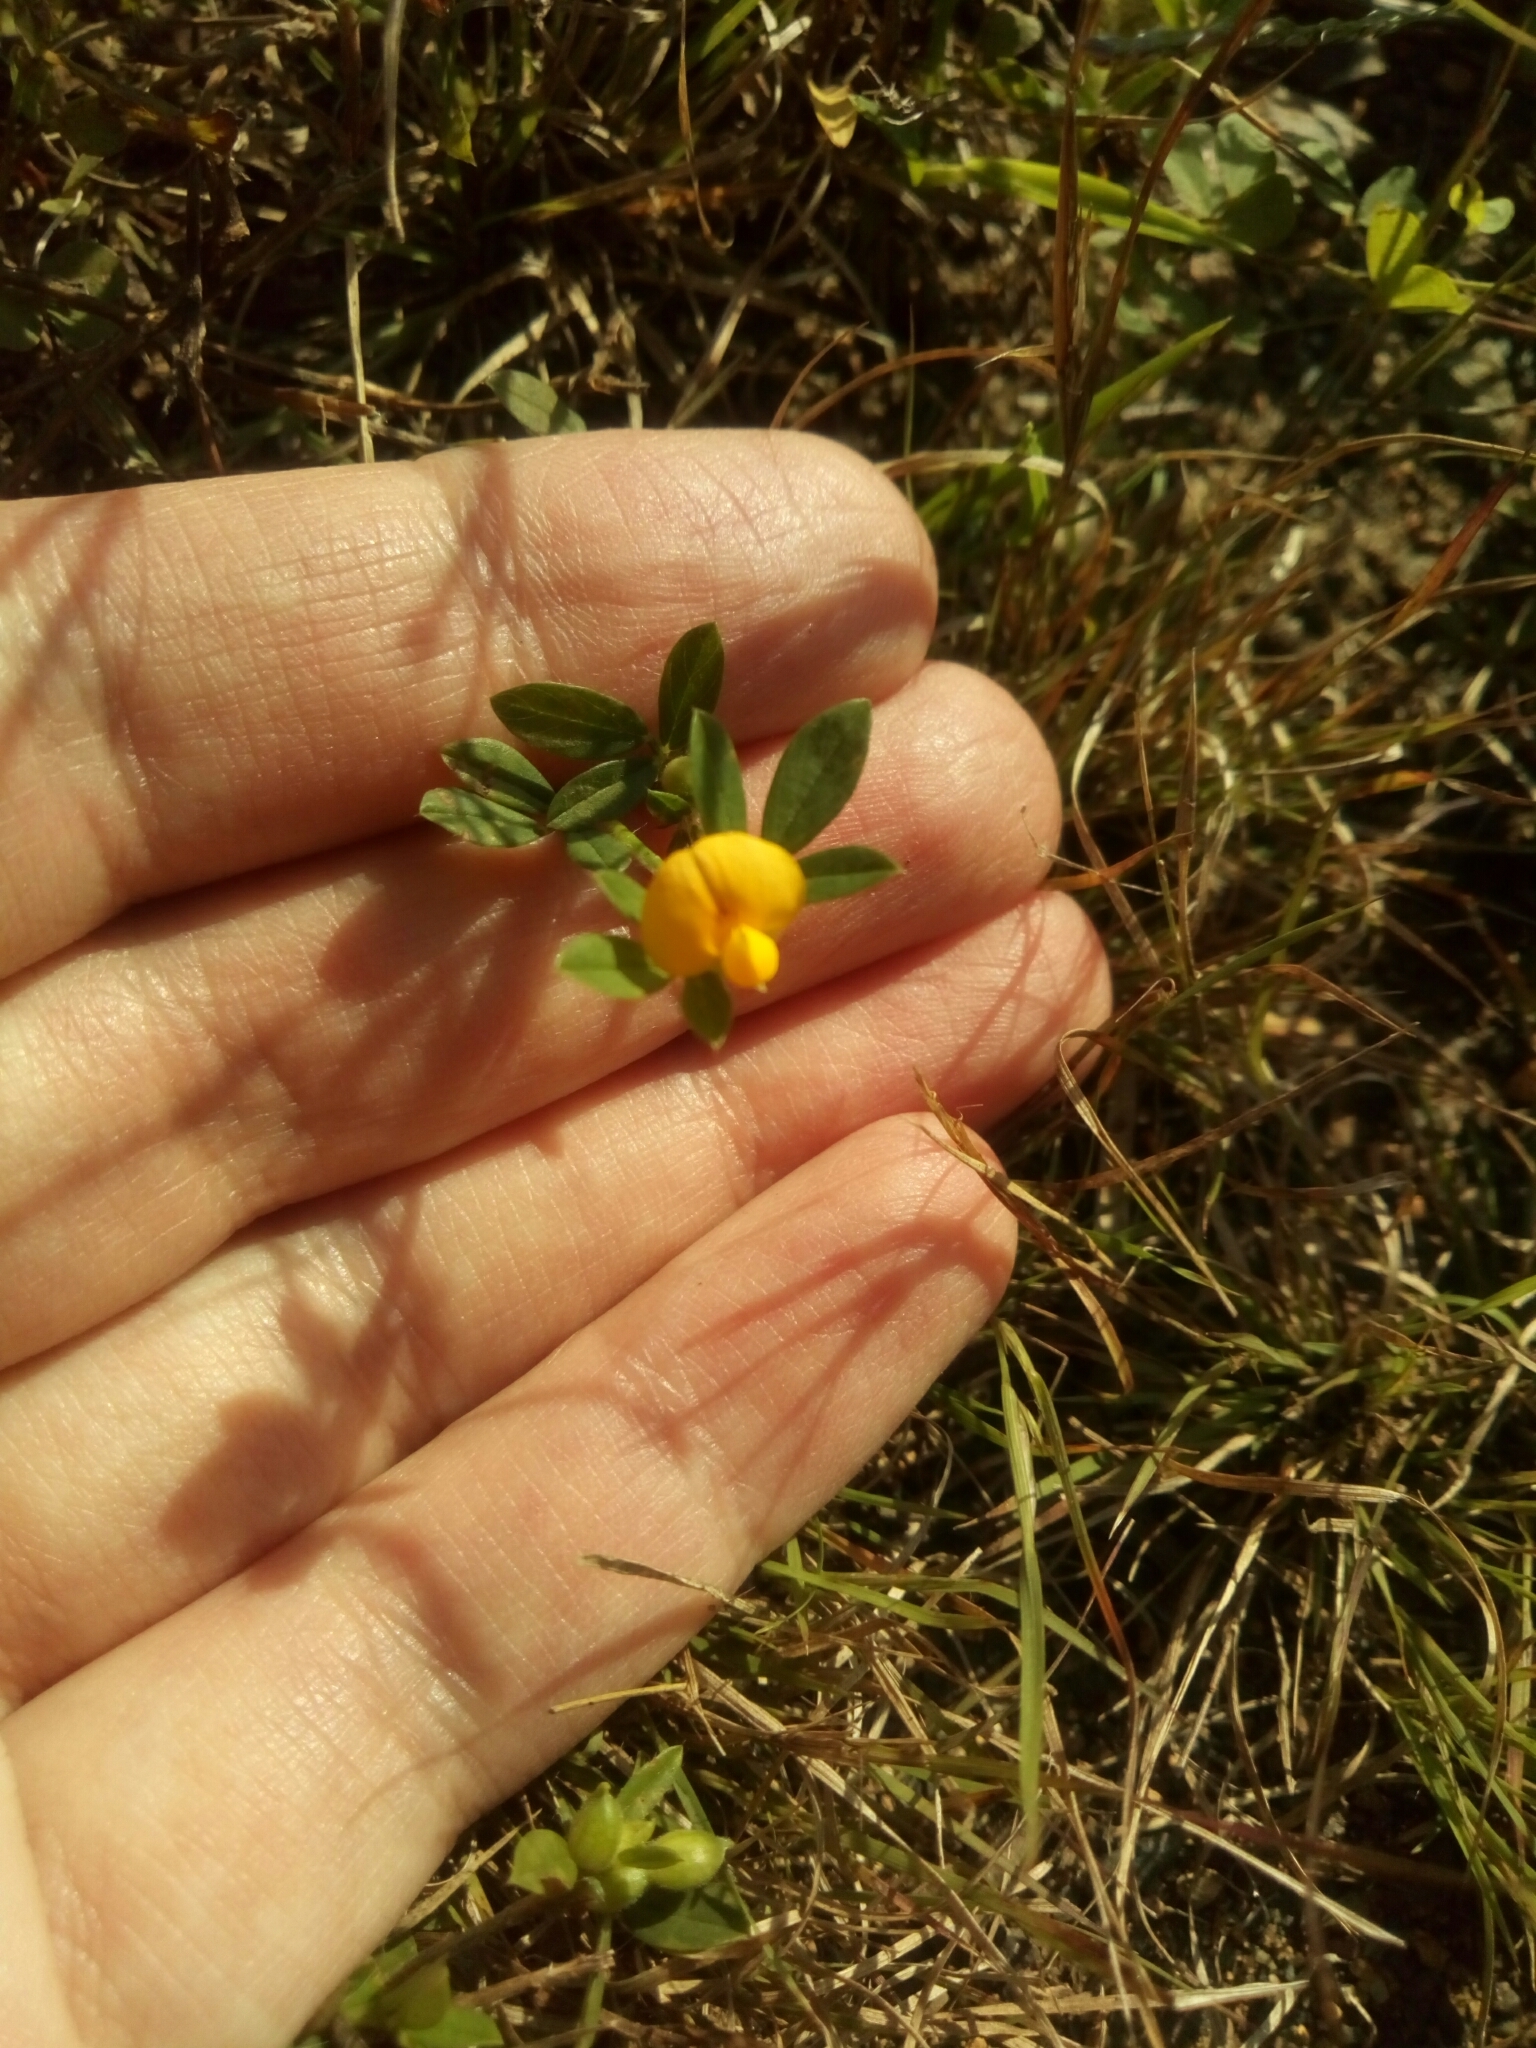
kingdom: Plantae
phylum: Tracheophyta
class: Magnoliopsida
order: Fabales
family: Fabaceae
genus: Stylosanthes
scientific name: Stylosanthes biflora
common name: Two-flower pencil-flower
